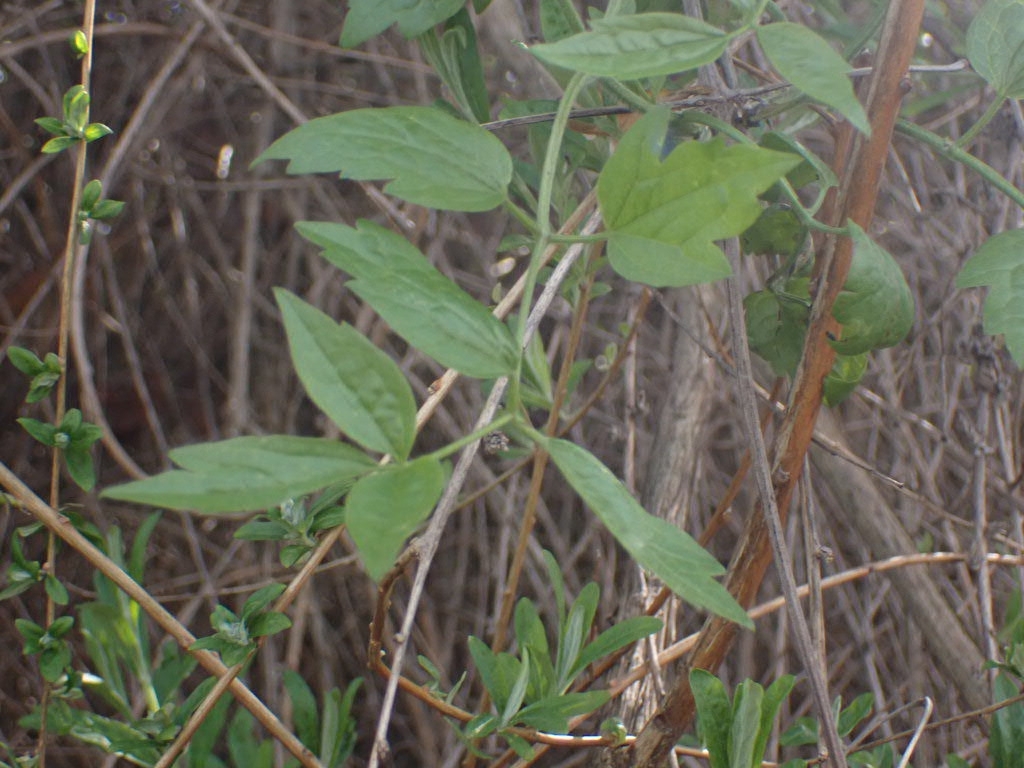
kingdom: Plantae
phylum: Tracheophyta
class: Magnoliopsida
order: Ranunculales
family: Ranunculaceae
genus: Clematis
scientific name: Clematis vitalba
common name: Evergreen clematis
